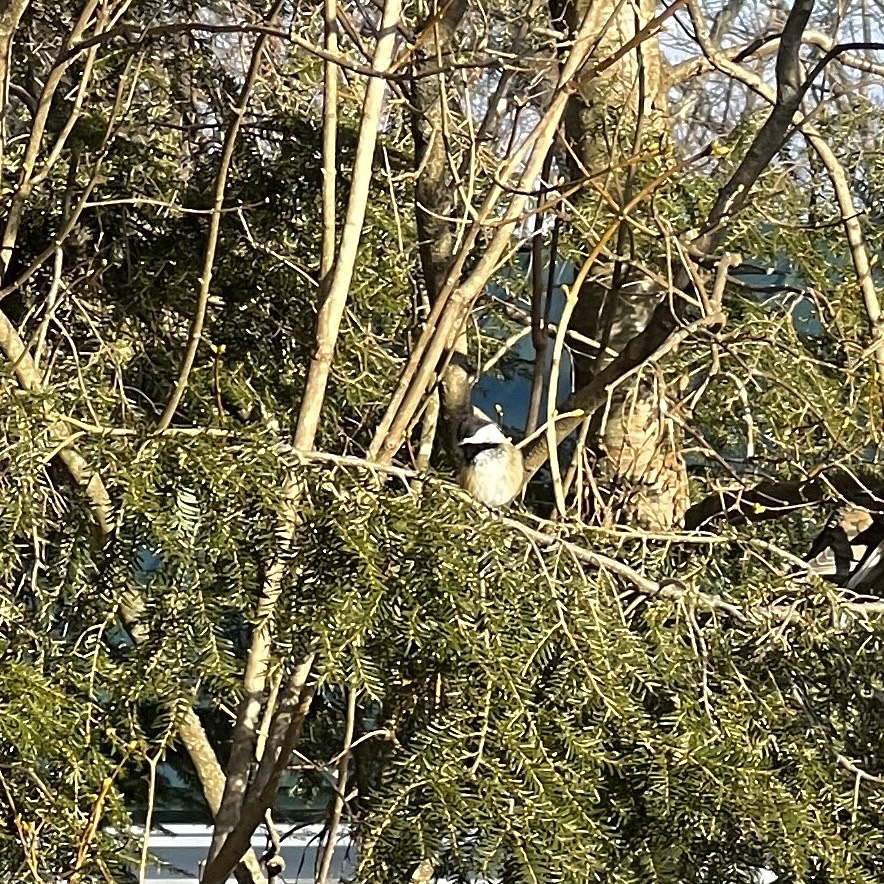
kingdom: Animalia
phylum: Chordata
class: Aves
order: Passeriformes
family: Paridae
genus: Poecile
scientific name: Poecile atricapillus
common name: Black-capped chickadee
